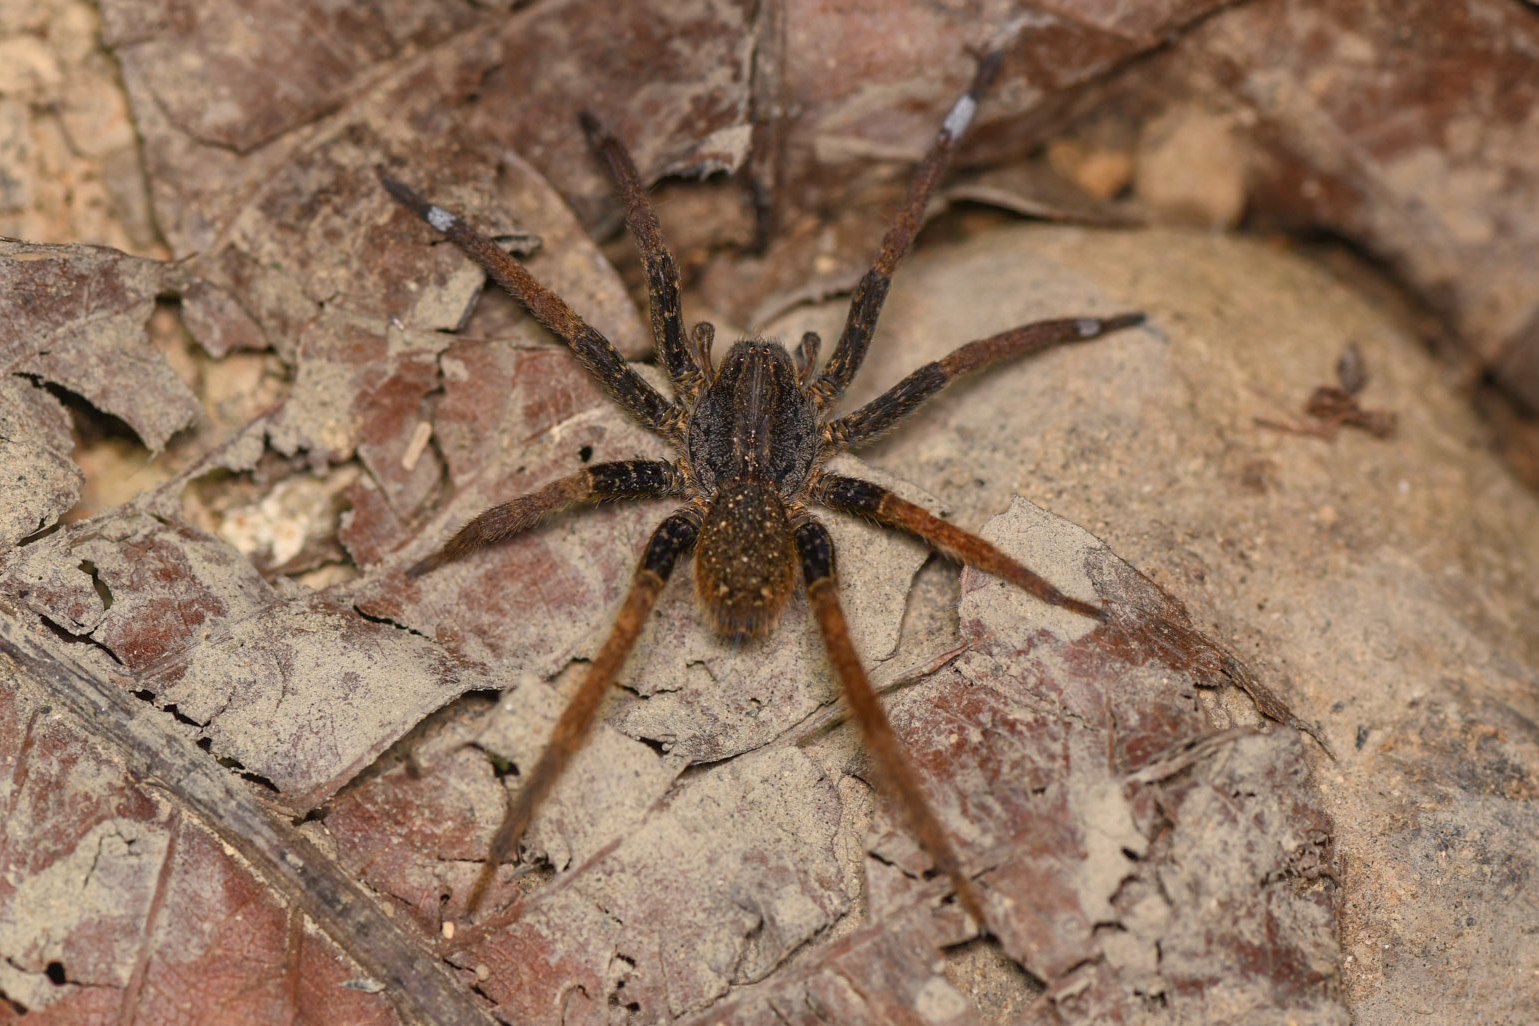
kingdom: Animalia
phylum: Arthropoda
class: Arachnida
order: Araneae
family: Ctenidae
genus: Ancylometes
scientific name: Ancylometes bogotensis
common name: Wandering spiders
